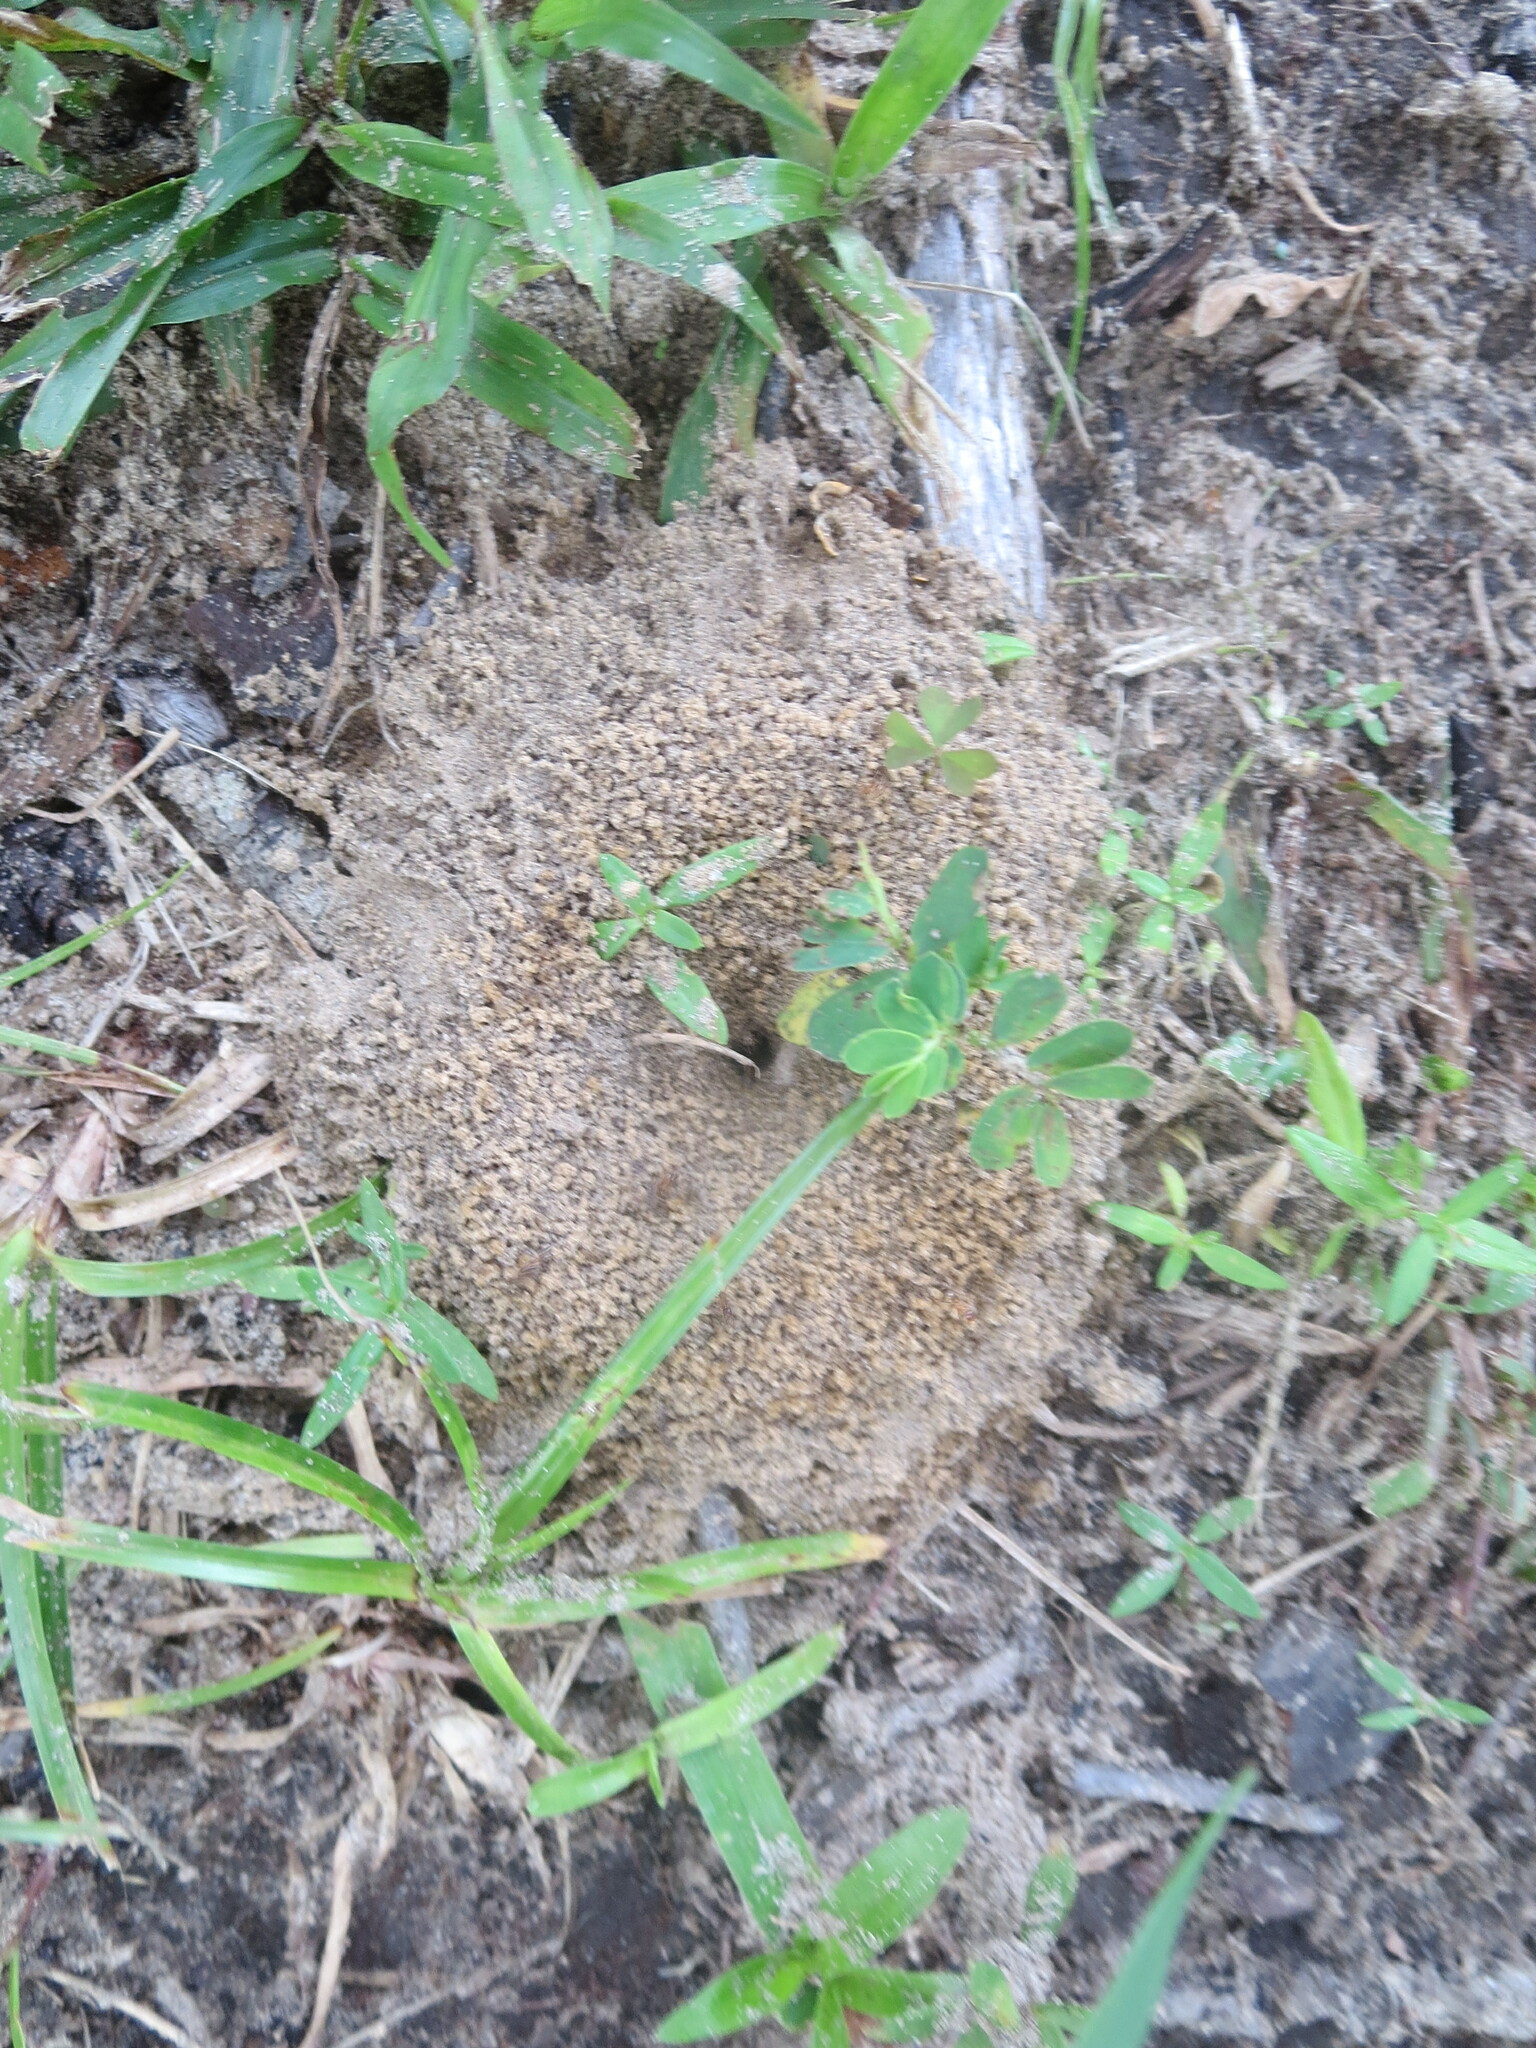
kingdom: Animalia
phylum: Arthropoda
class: Insecta
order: Hymenoptera
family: Formicidae
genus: Dorymyrmex
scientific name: Dorymyrmex bureni
